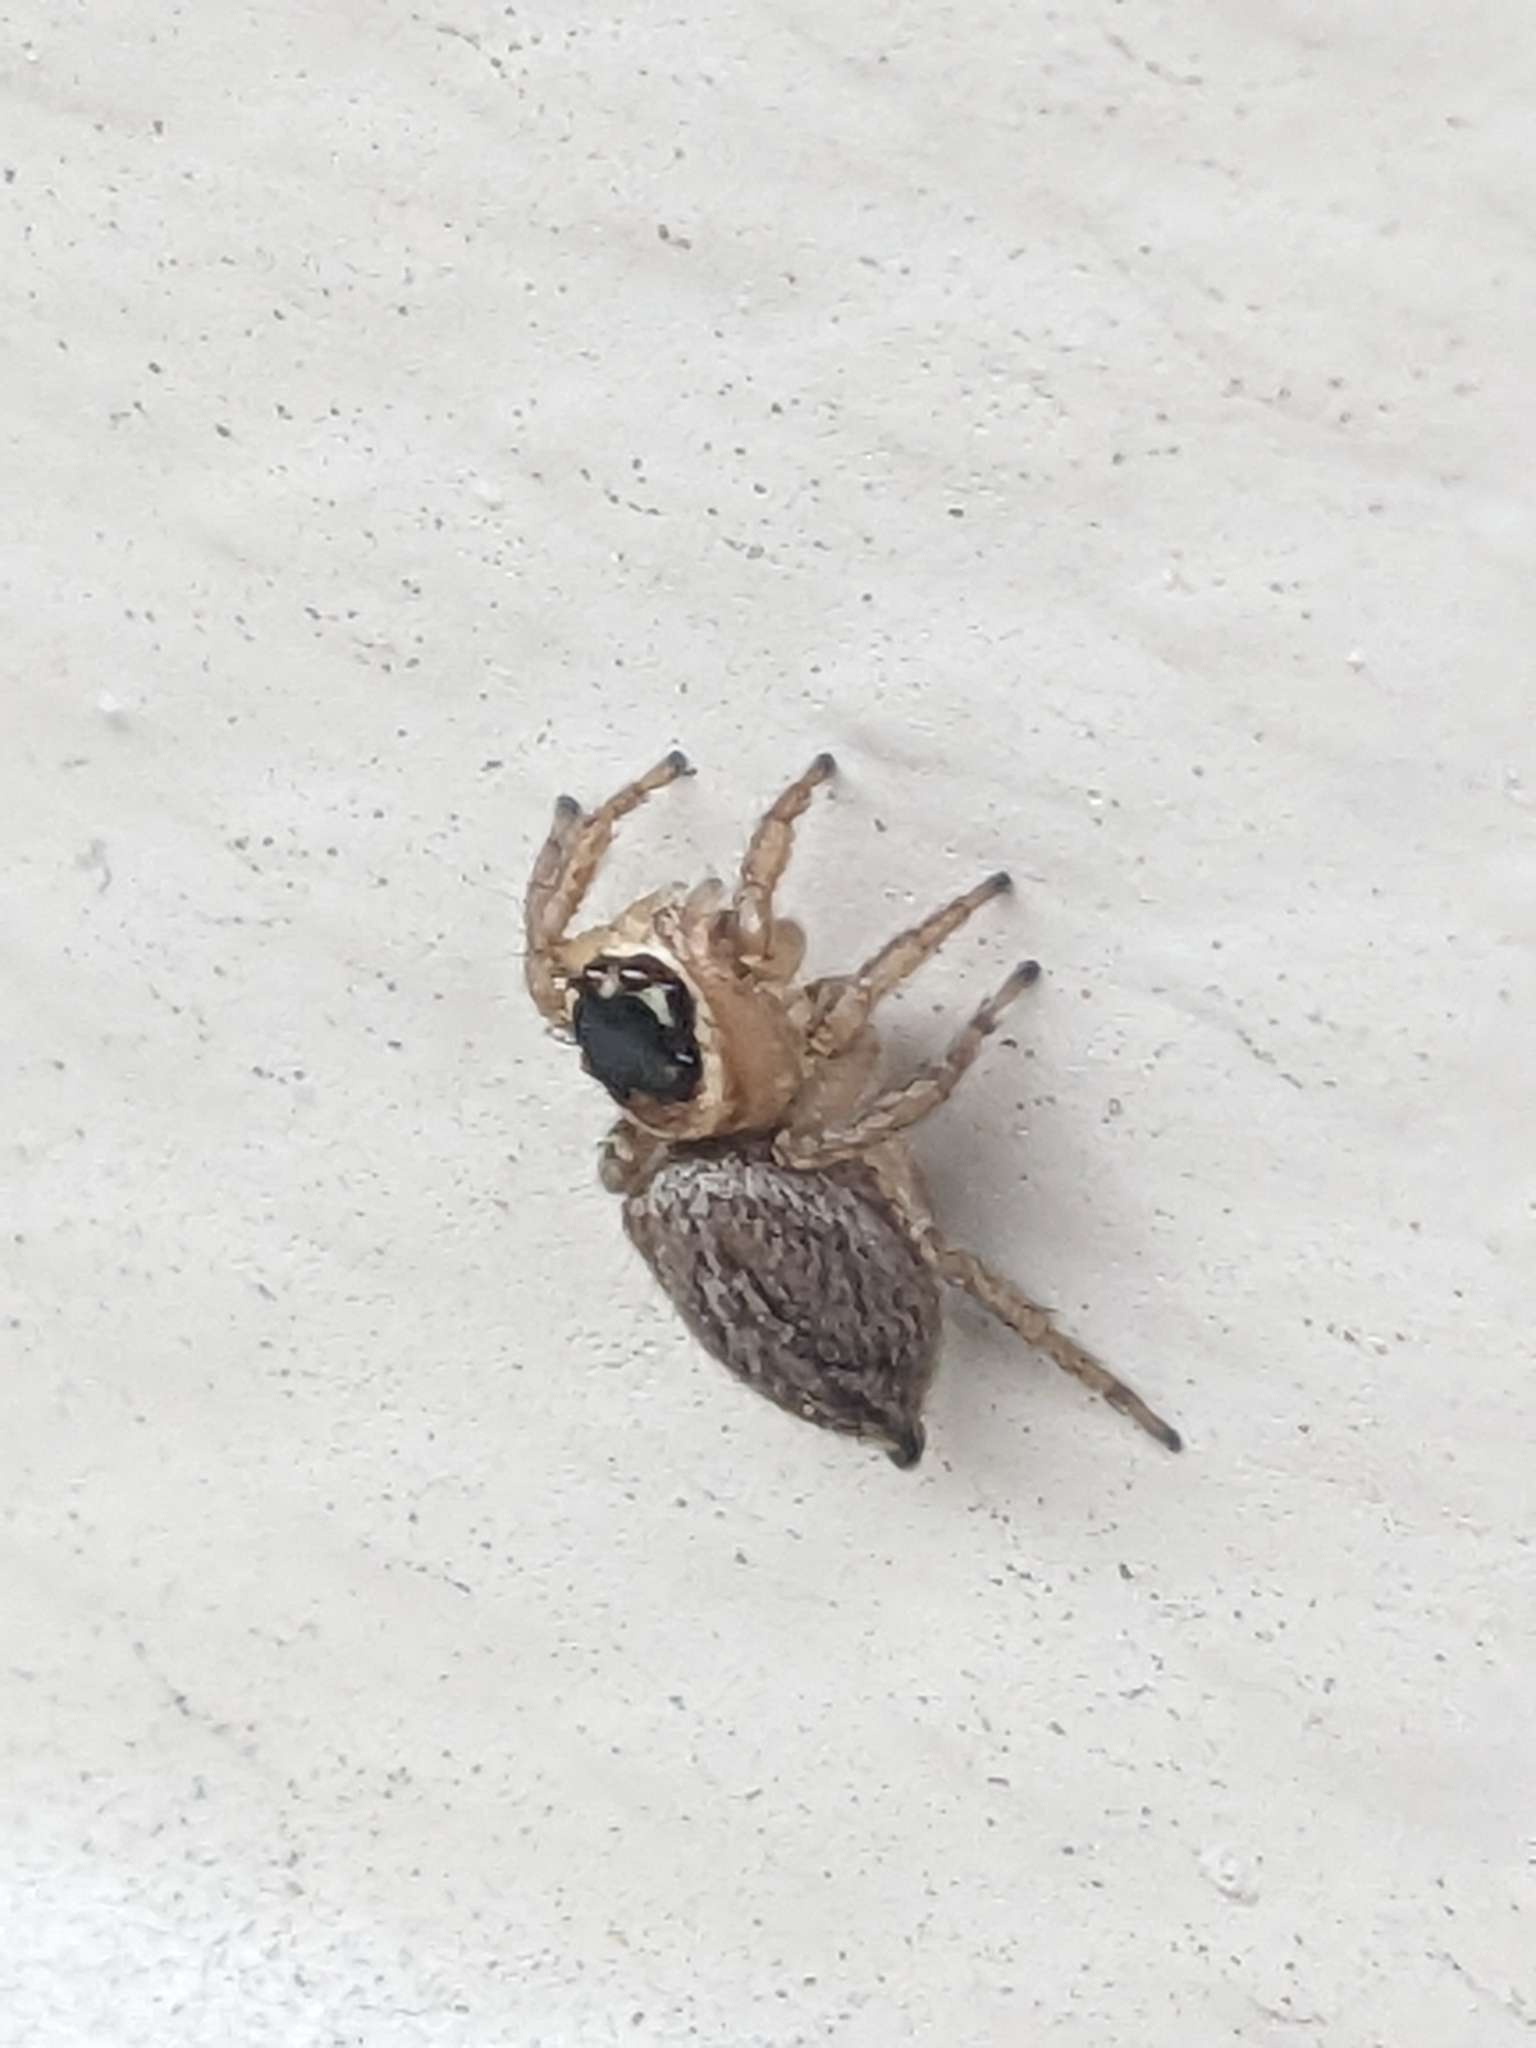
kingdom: Animalia
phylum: Arthropoda
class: Arachnida
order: Araneae
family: Salticidae
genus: Maratus
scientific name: Maratus griseus
